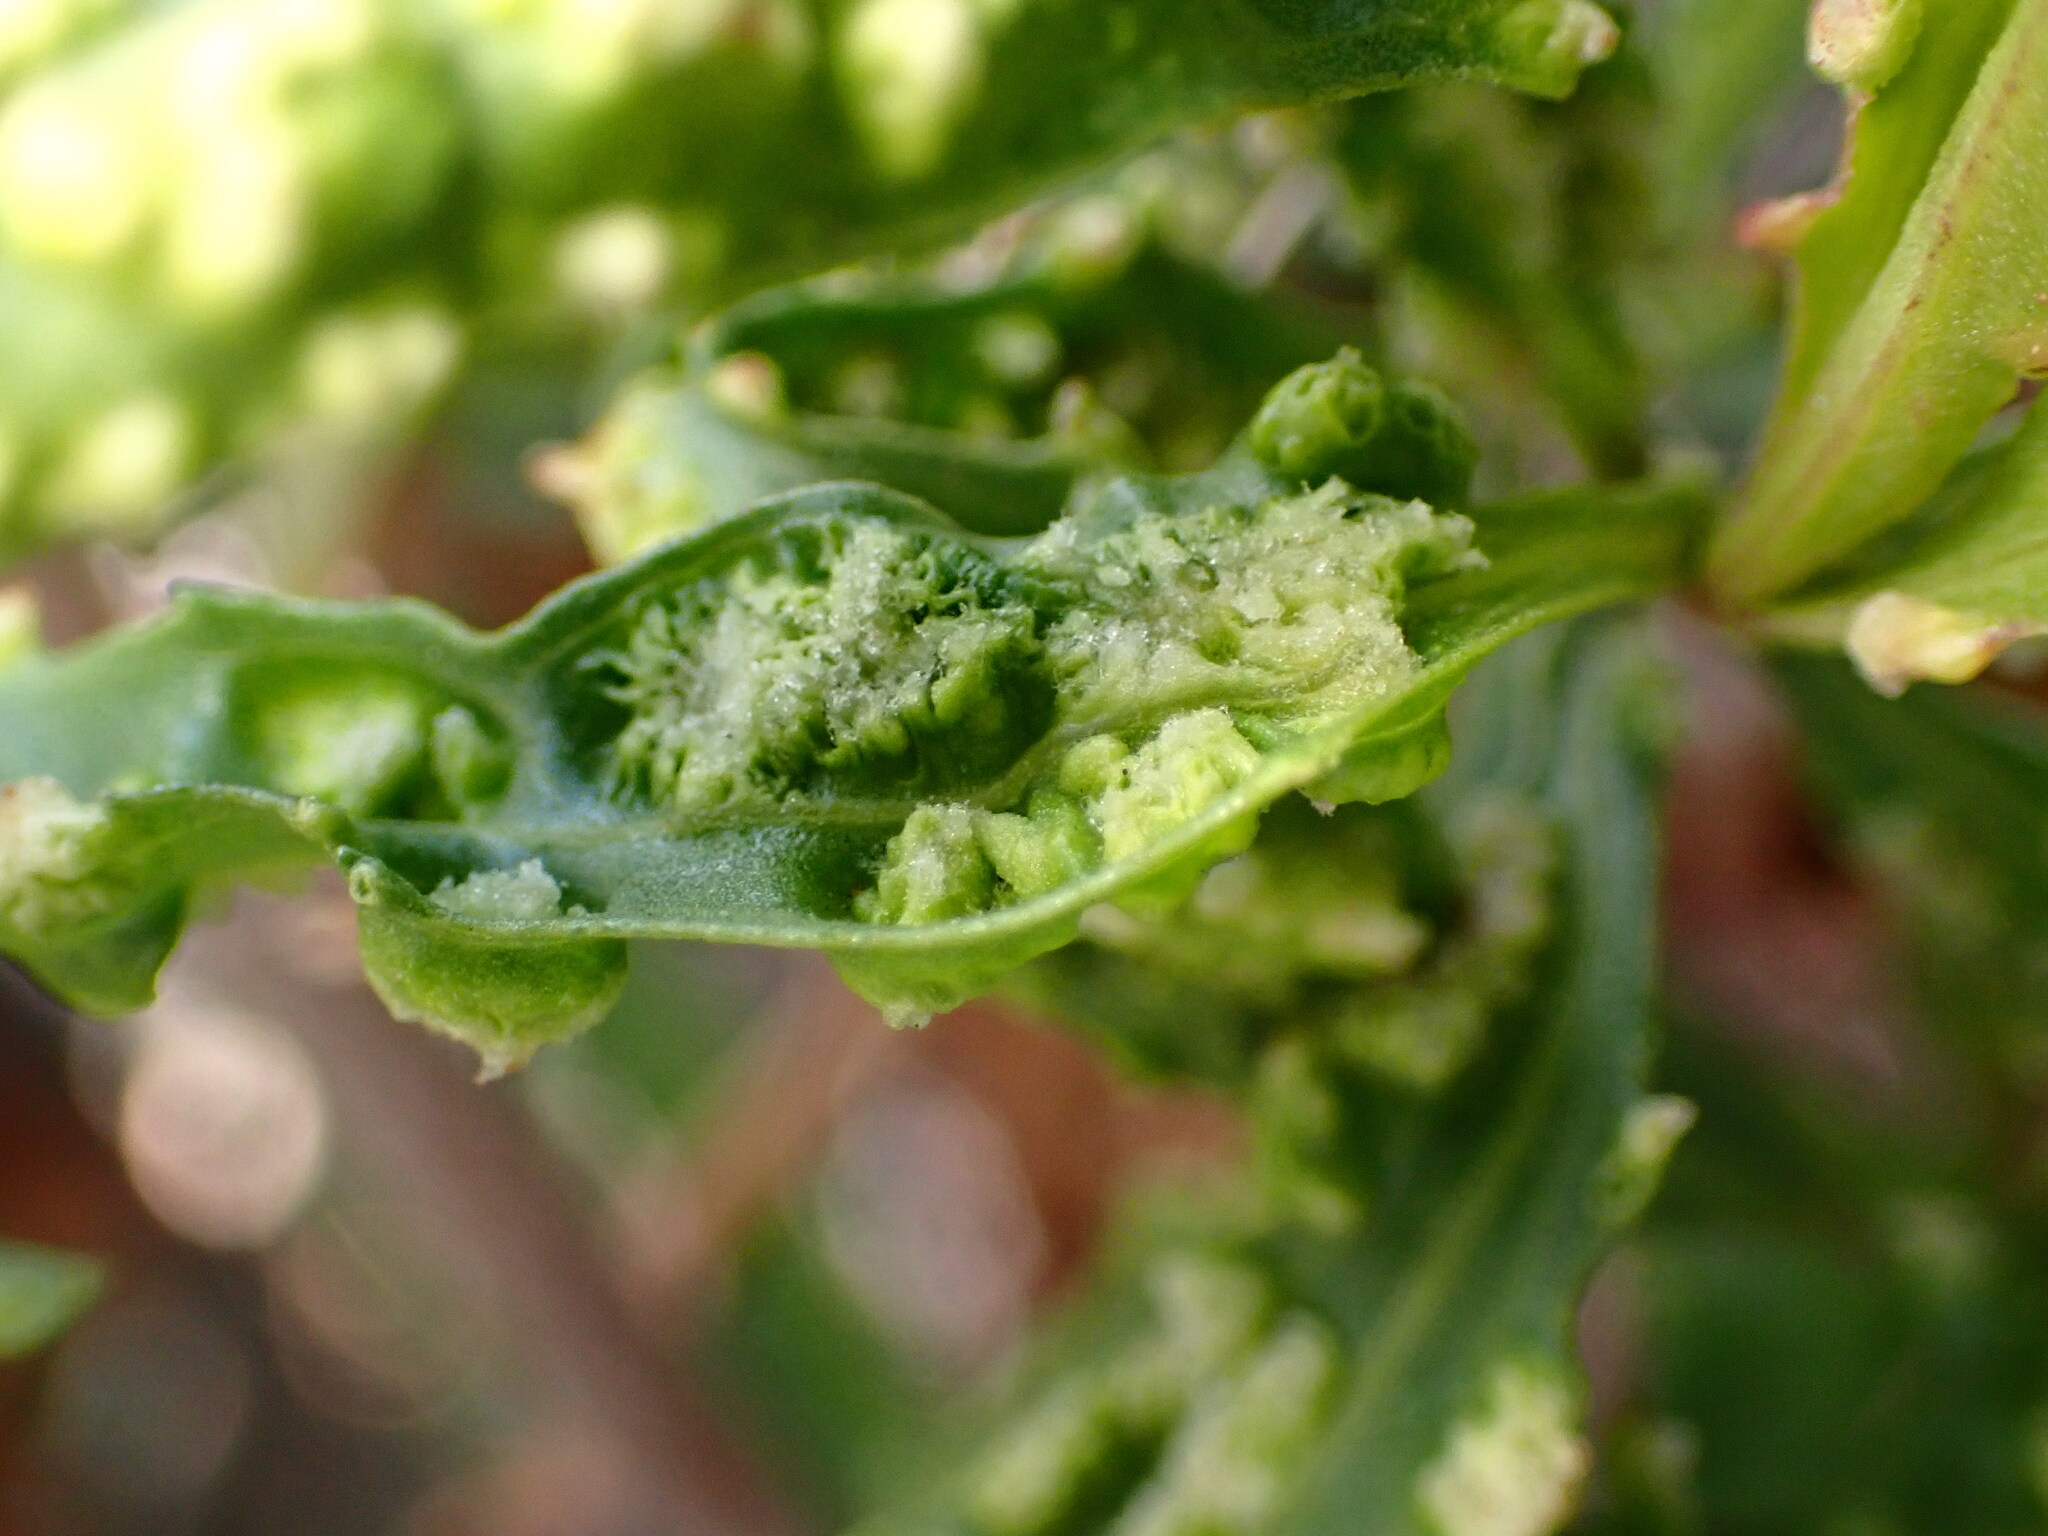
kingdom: Animalia
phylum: Arthropoda
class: Arachnida
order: Trombidiformes
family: Eriophyidae
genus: Aceria
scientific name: Aceria
